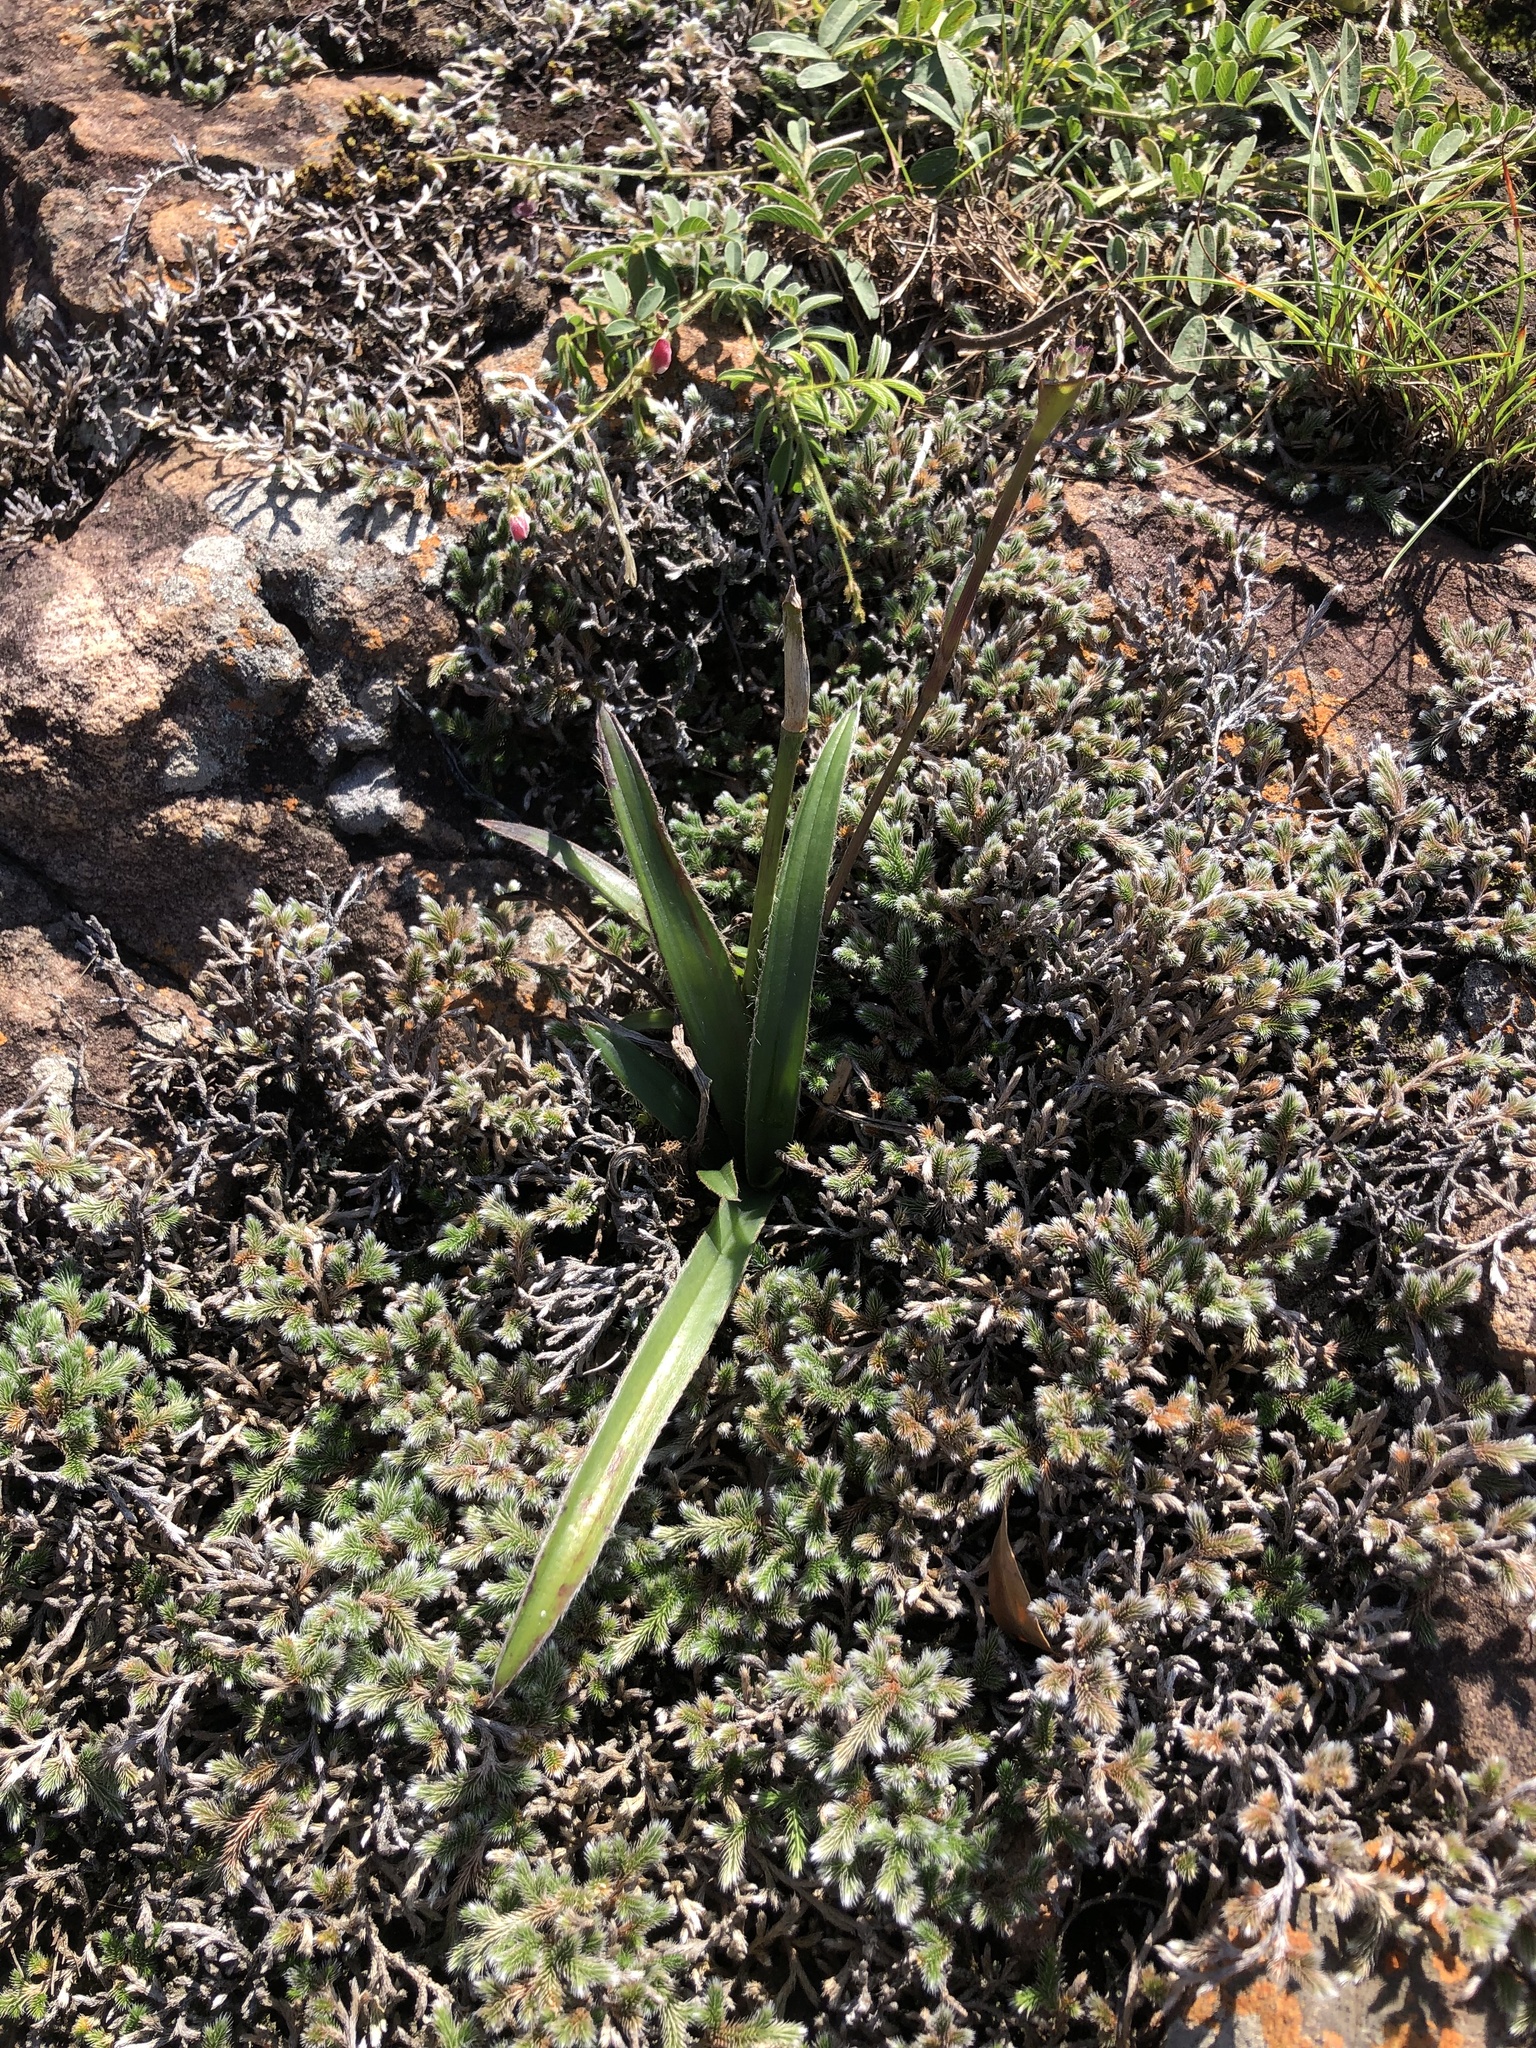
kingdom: Plantae
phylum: Tracheophyta
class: Liliopsida
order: Commelinales
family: Commelinaceae
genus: Cyanotis
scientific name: Cyanotis speciosa
